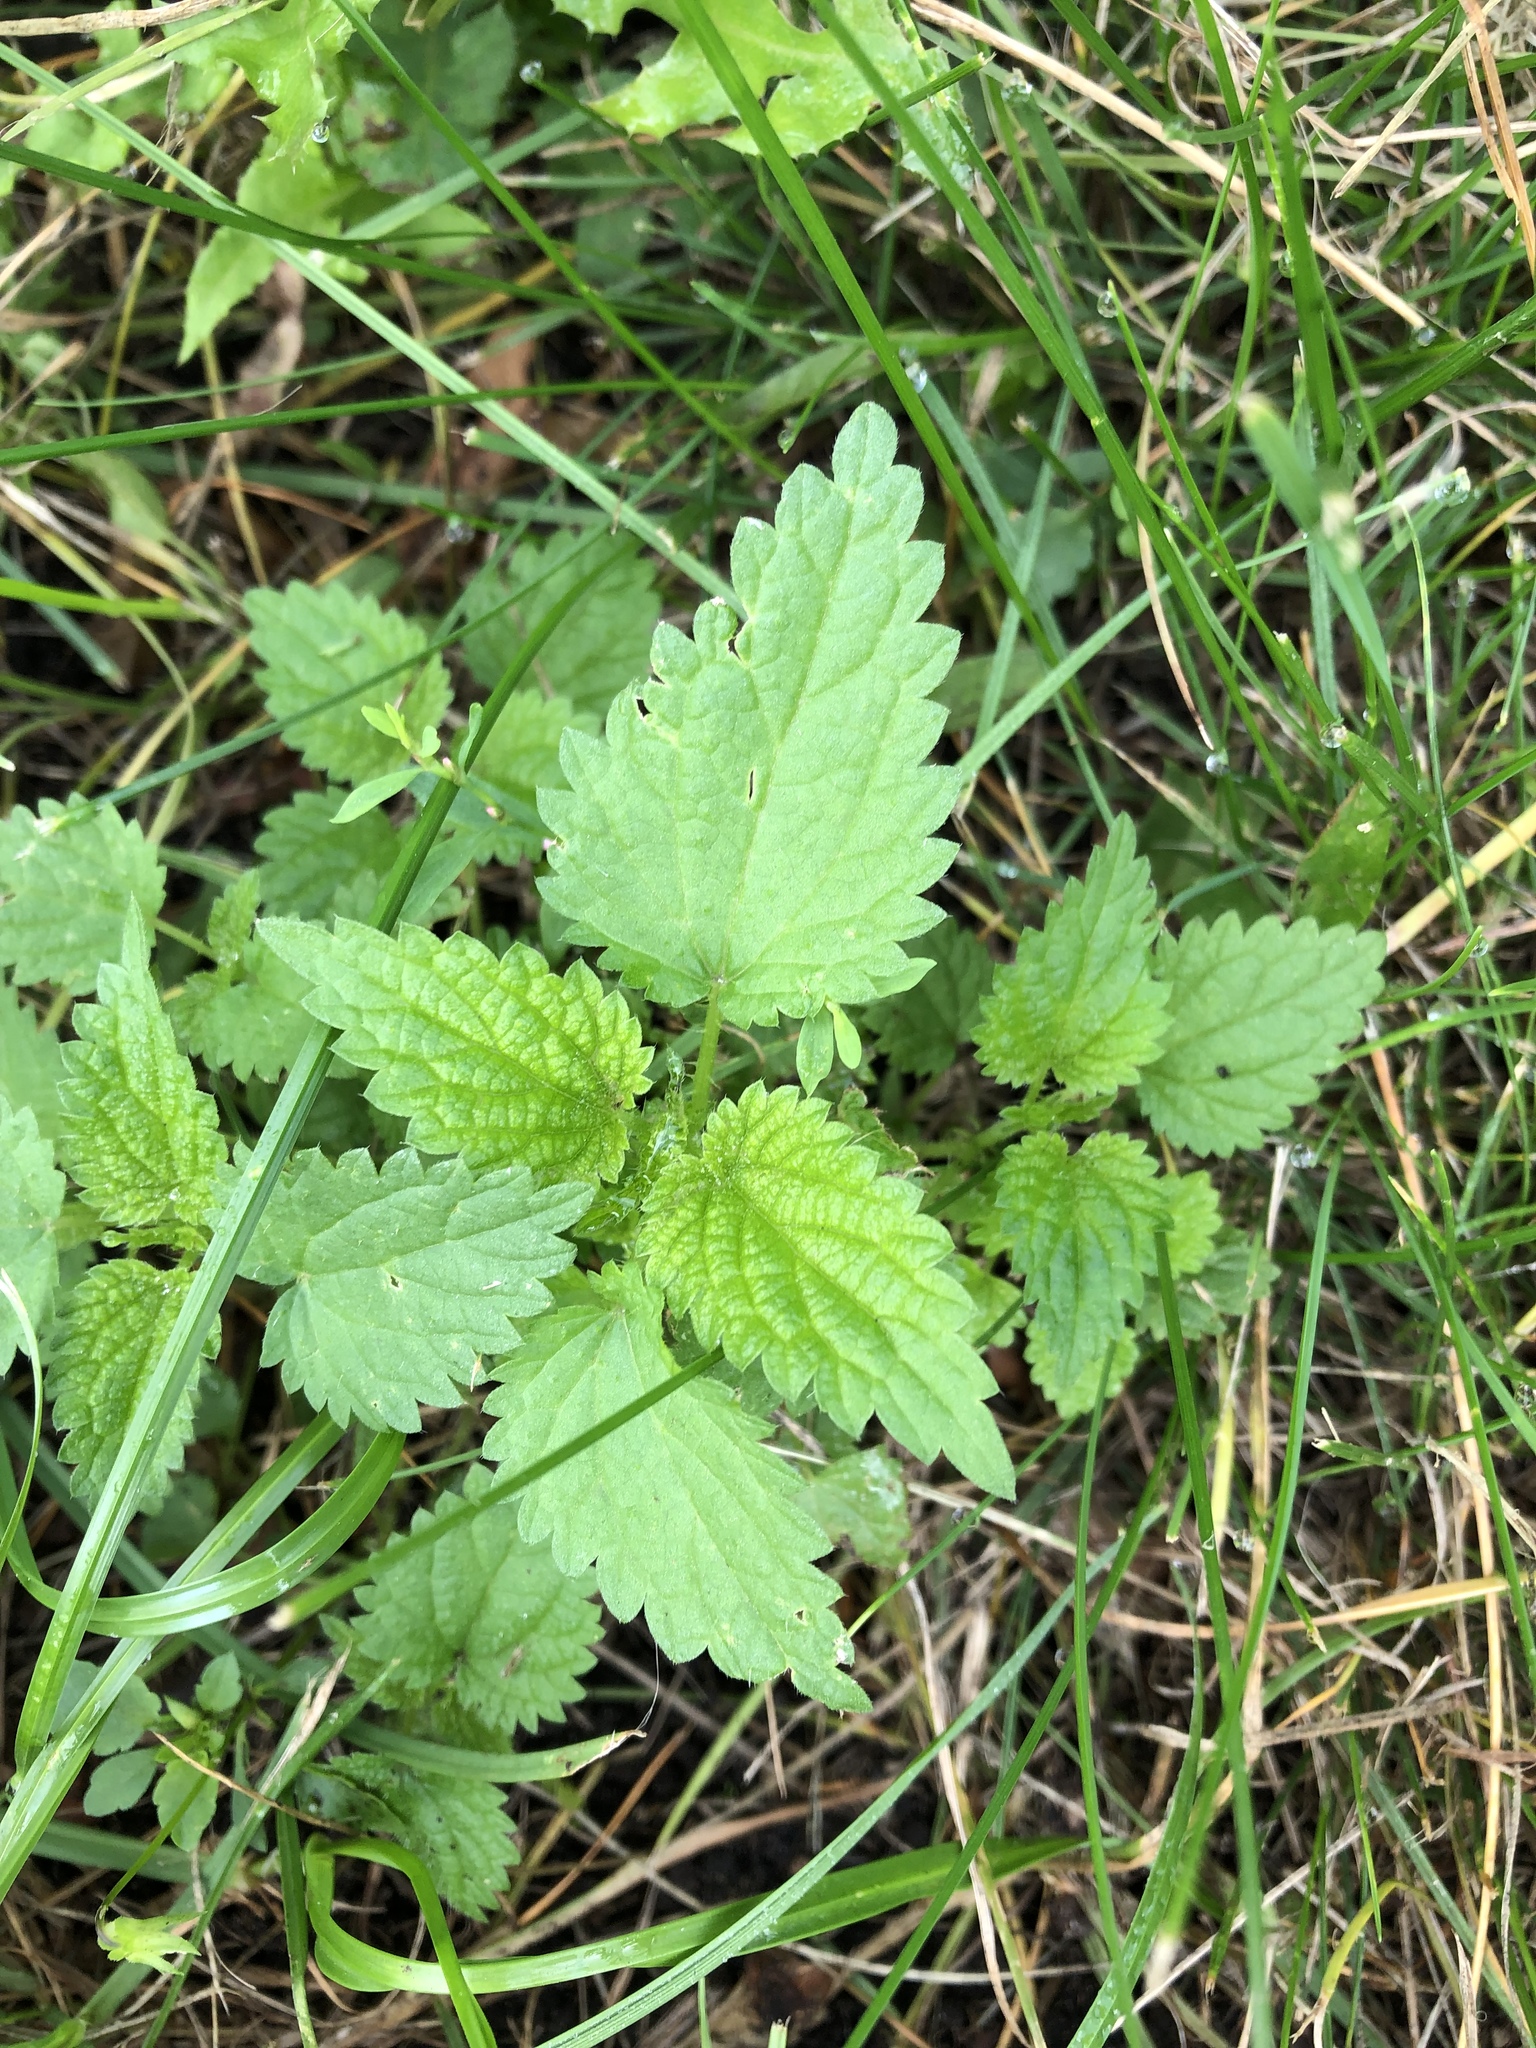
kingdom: Plantae
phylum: Tracheophyta
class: Magnoliopsida
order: Rosales
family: Urticaceae
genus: Urtica
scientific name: Urtica dioica
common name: Common nettle
